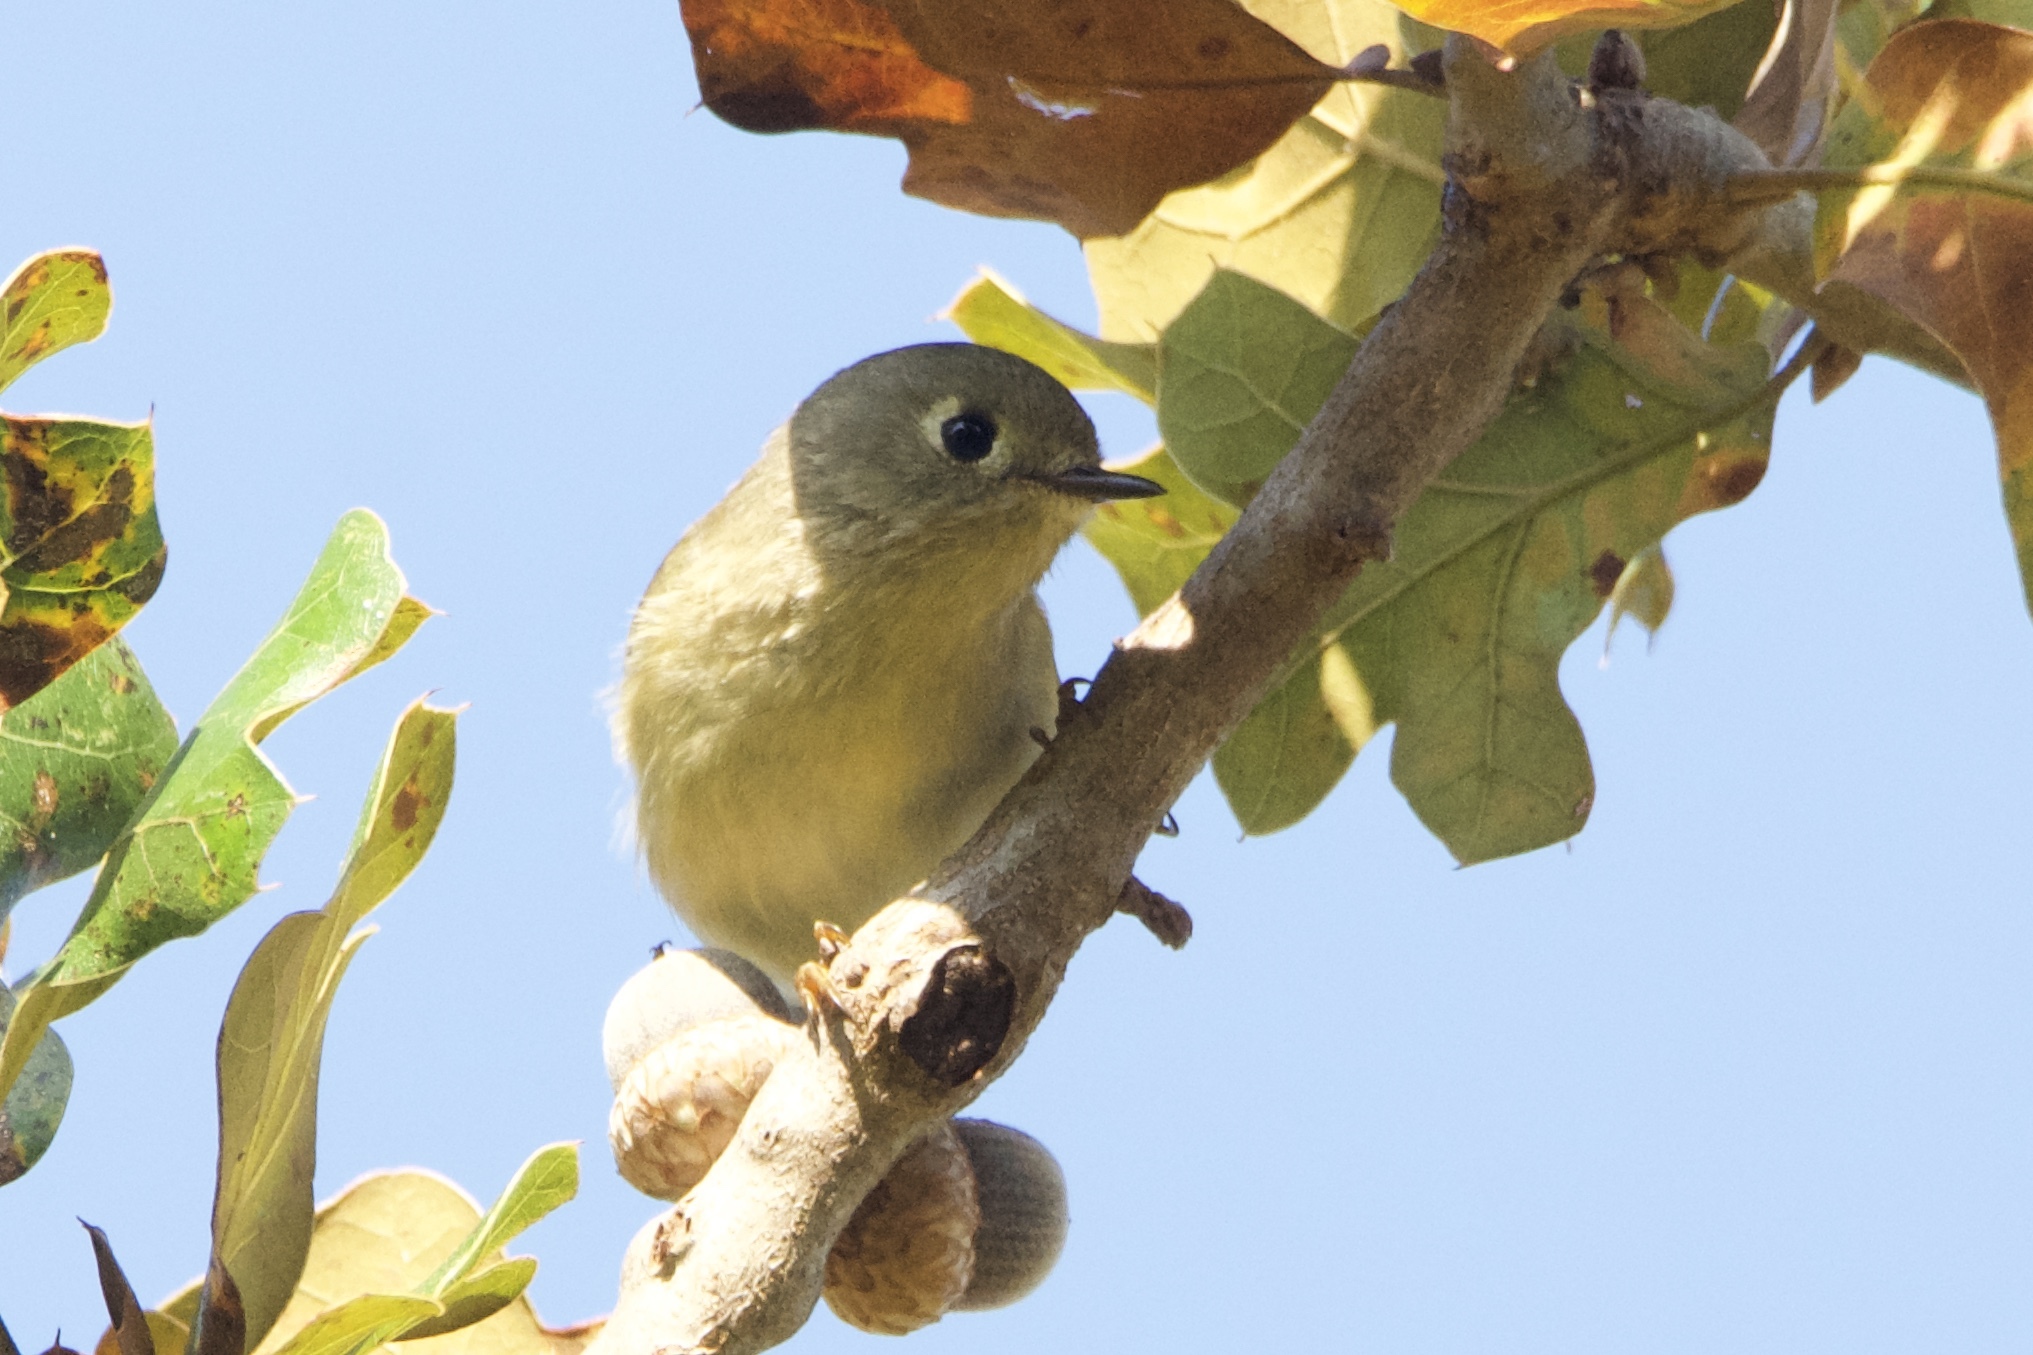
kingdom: Animalia
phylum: Chordata
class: Aves
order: Passeriformes
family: Regulidae
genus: Regulus
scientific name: Regulus calendula
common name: Ruby-crowned kinglet
